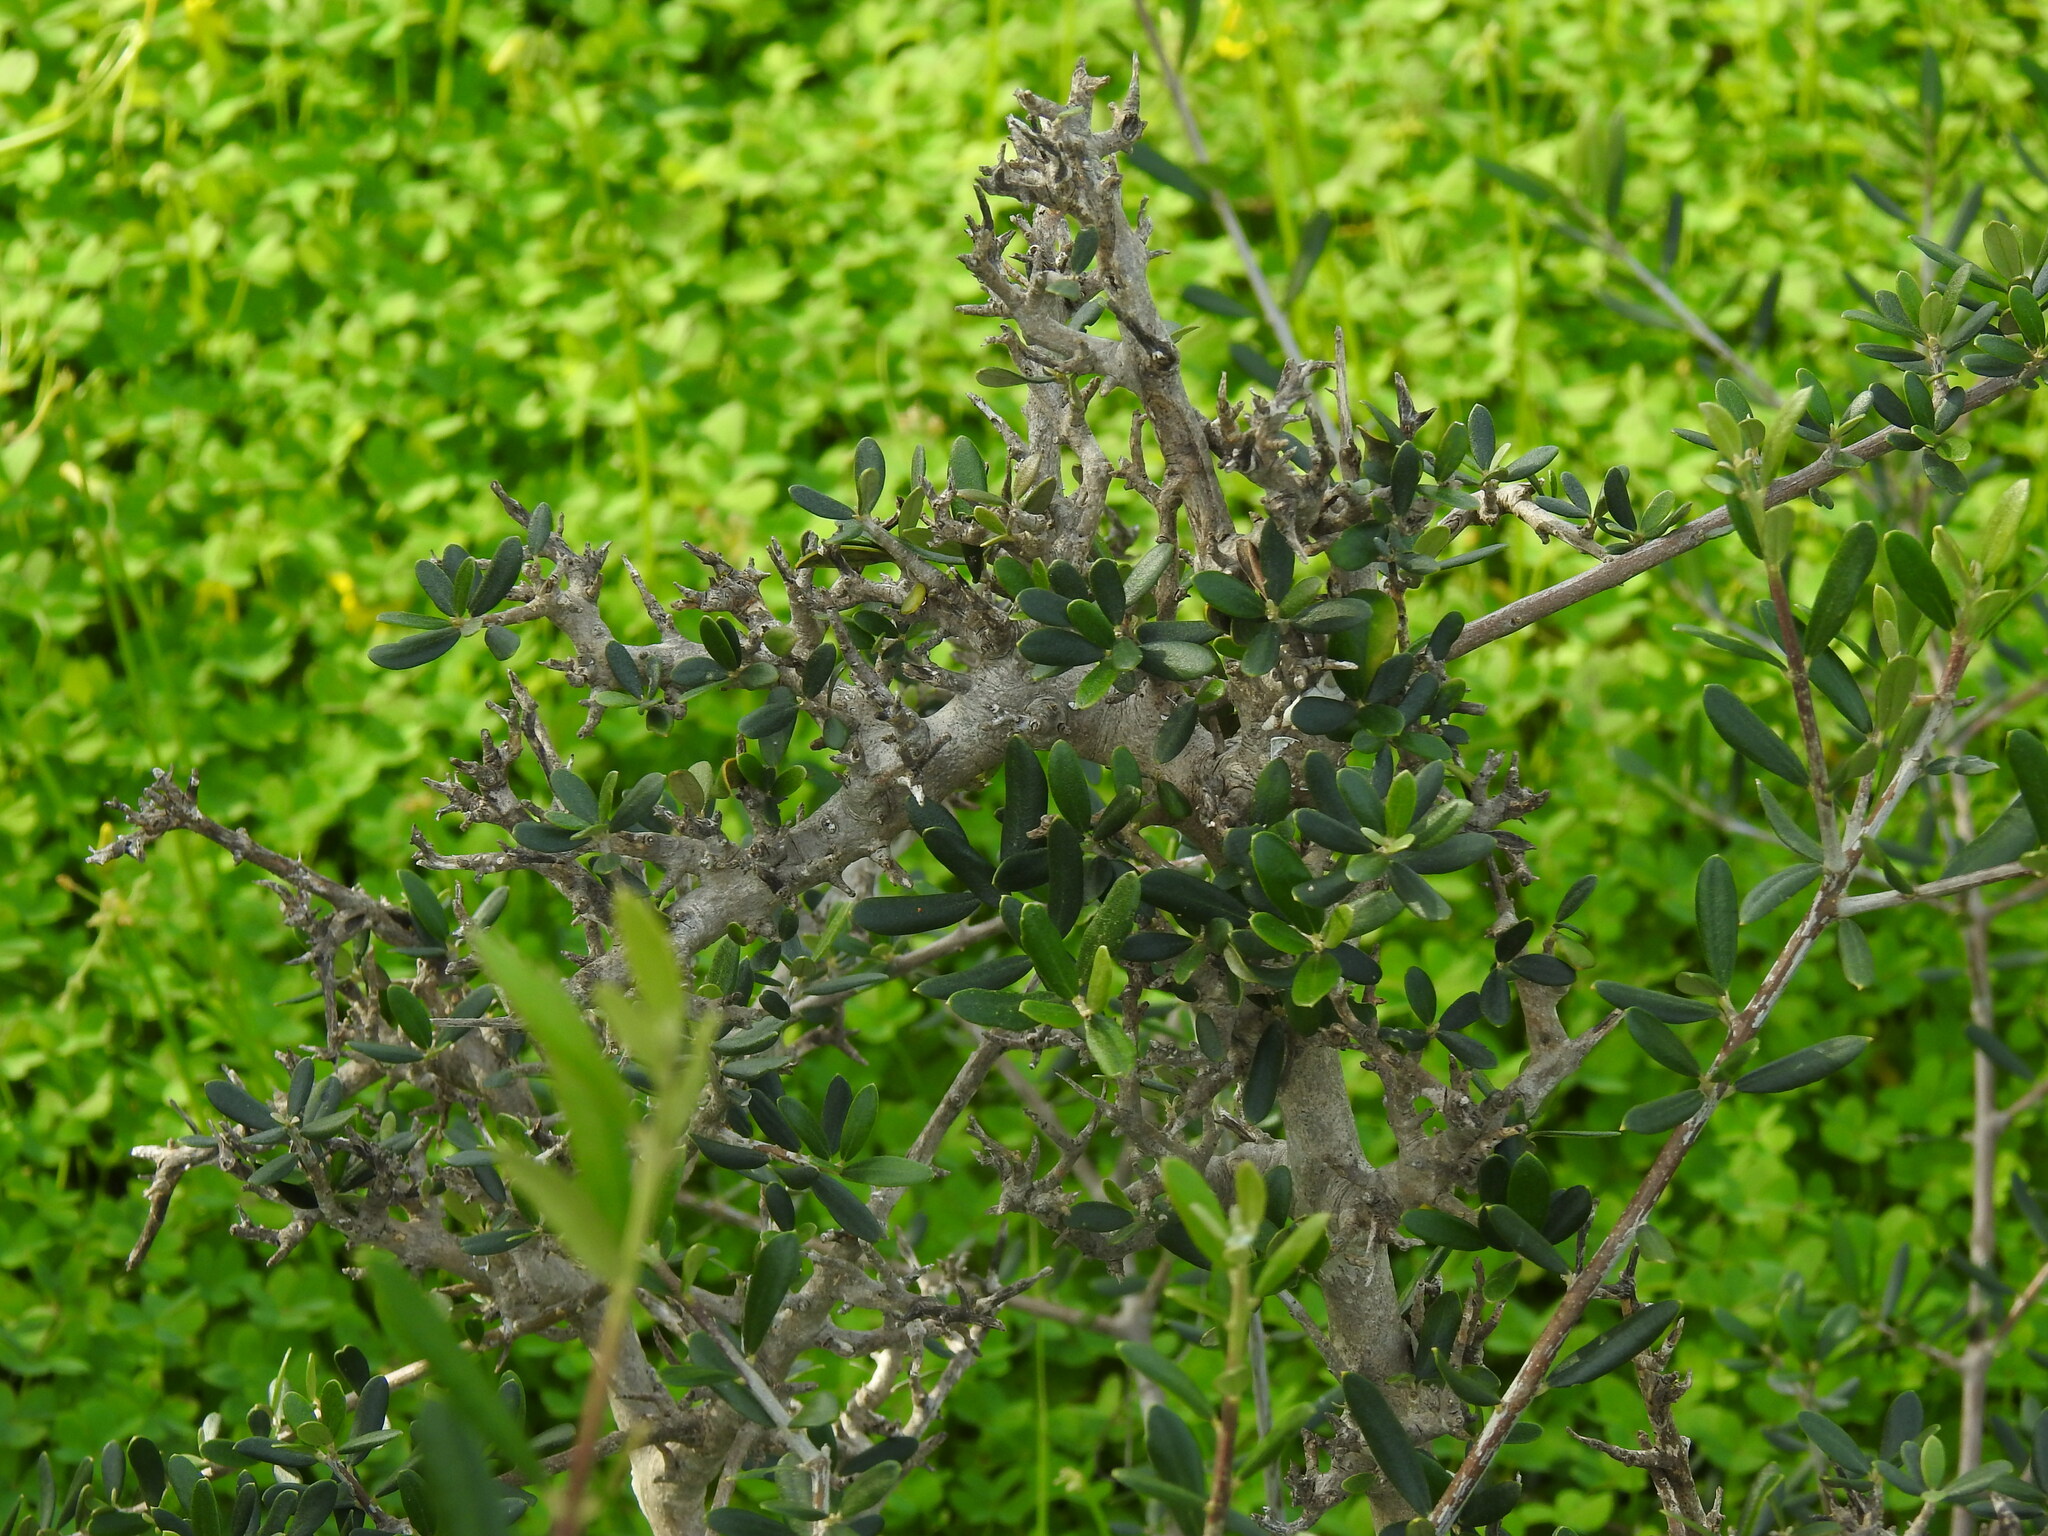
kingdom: Plantae
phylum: Tracheophyta
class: Magnoliopsida
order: Lamiales
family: Oleaceae
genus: Olea
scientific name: Olea europaea
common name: Olive
